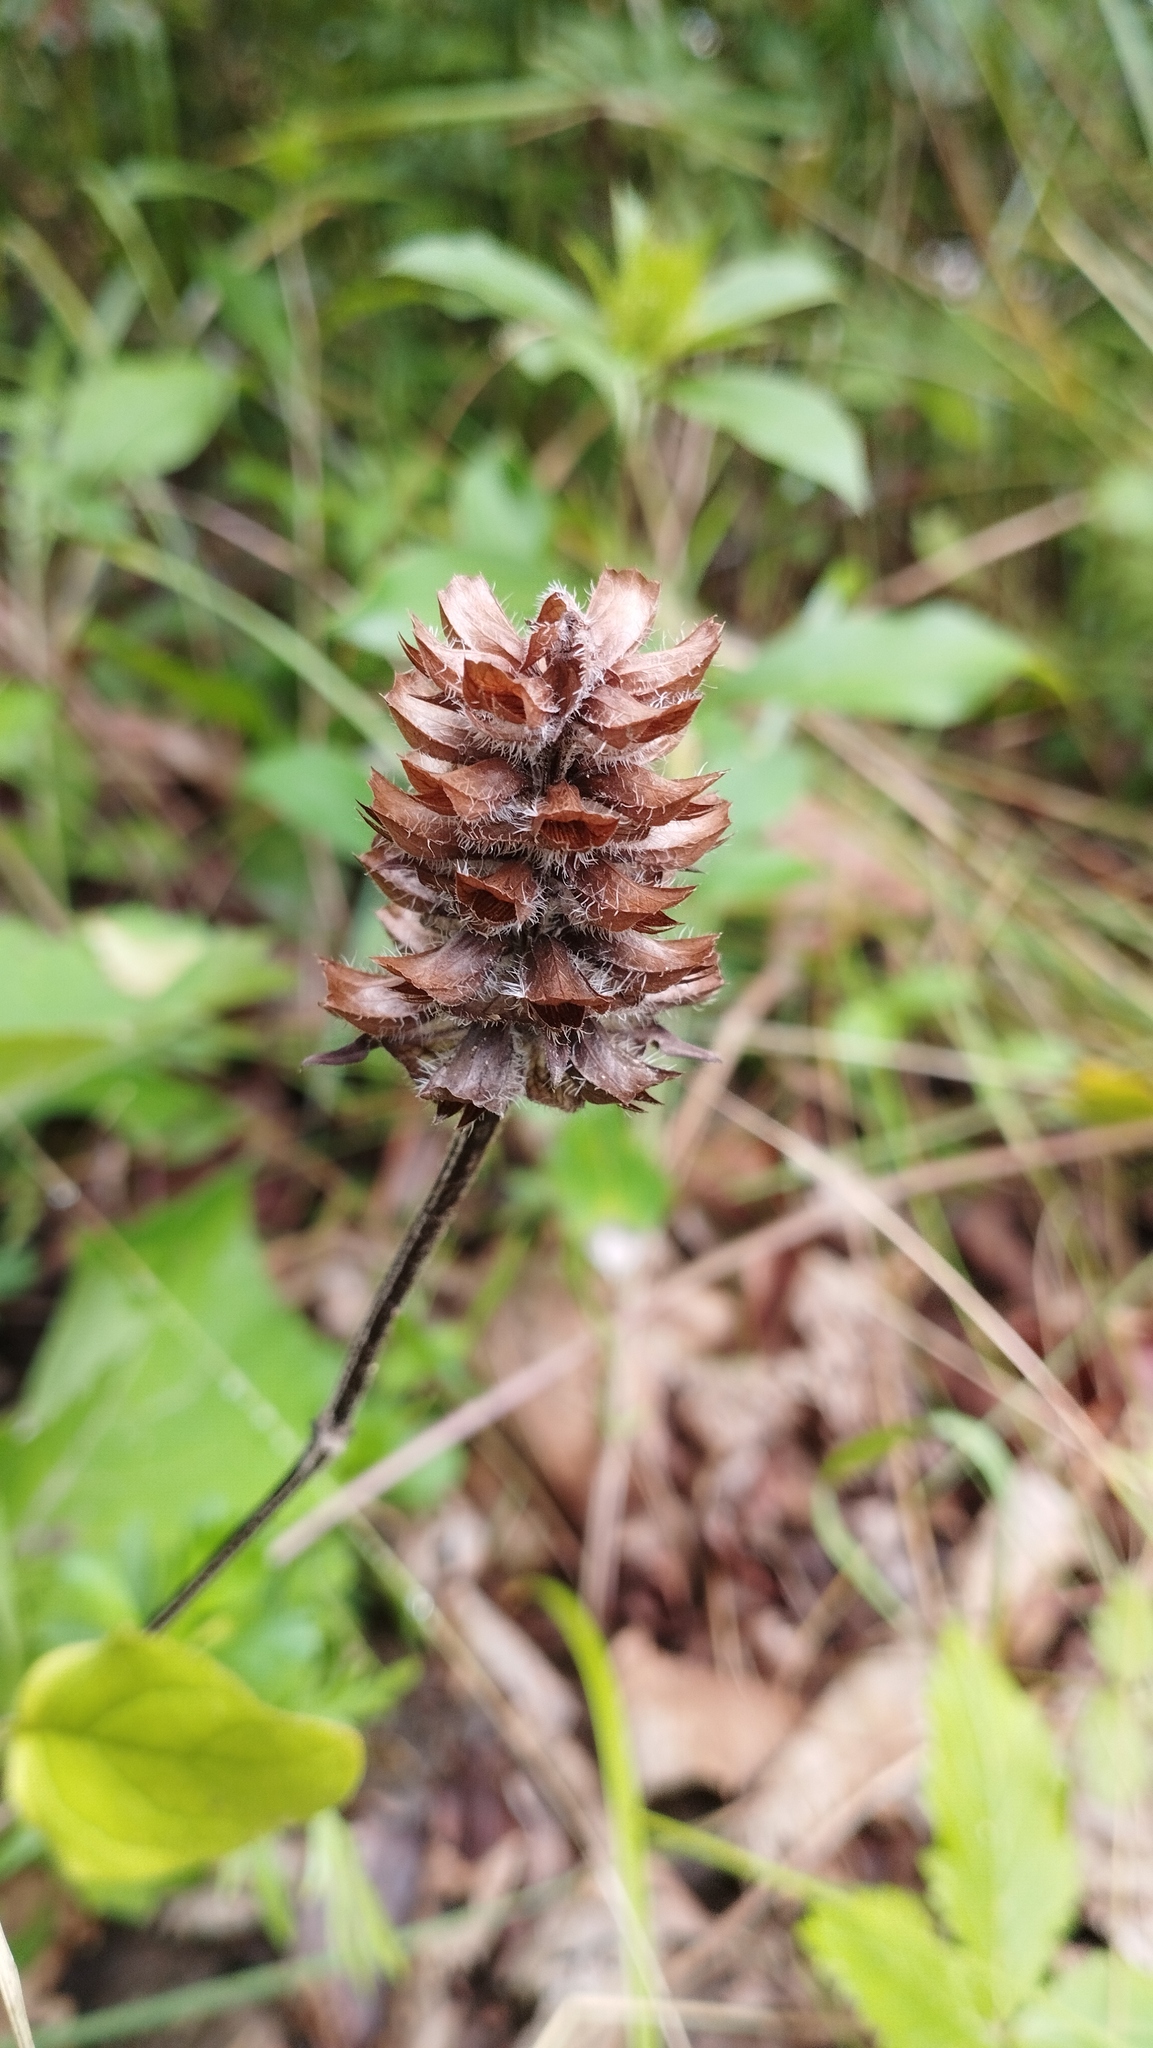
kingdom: Plantae
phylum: Tracheophyta
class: Magnoliopsida
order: Lamiales
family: Lamiaceae
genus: Prunella
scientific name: Prunella vulgaris
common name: Heal-all
